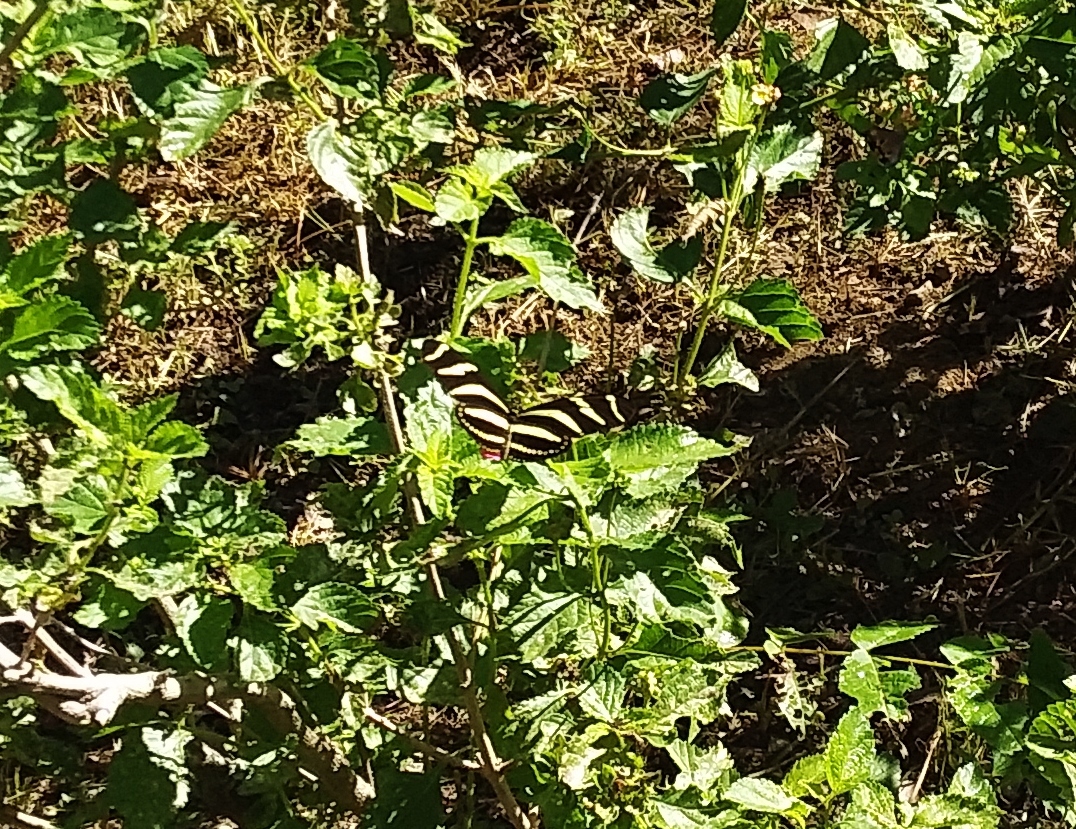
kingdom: Animalia
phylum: Arthropoda
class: Insecta
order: Lepidoptera
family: Nymphalidae
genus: Heliconius
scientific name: Heliconius charithonia
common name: Zebra long wing
